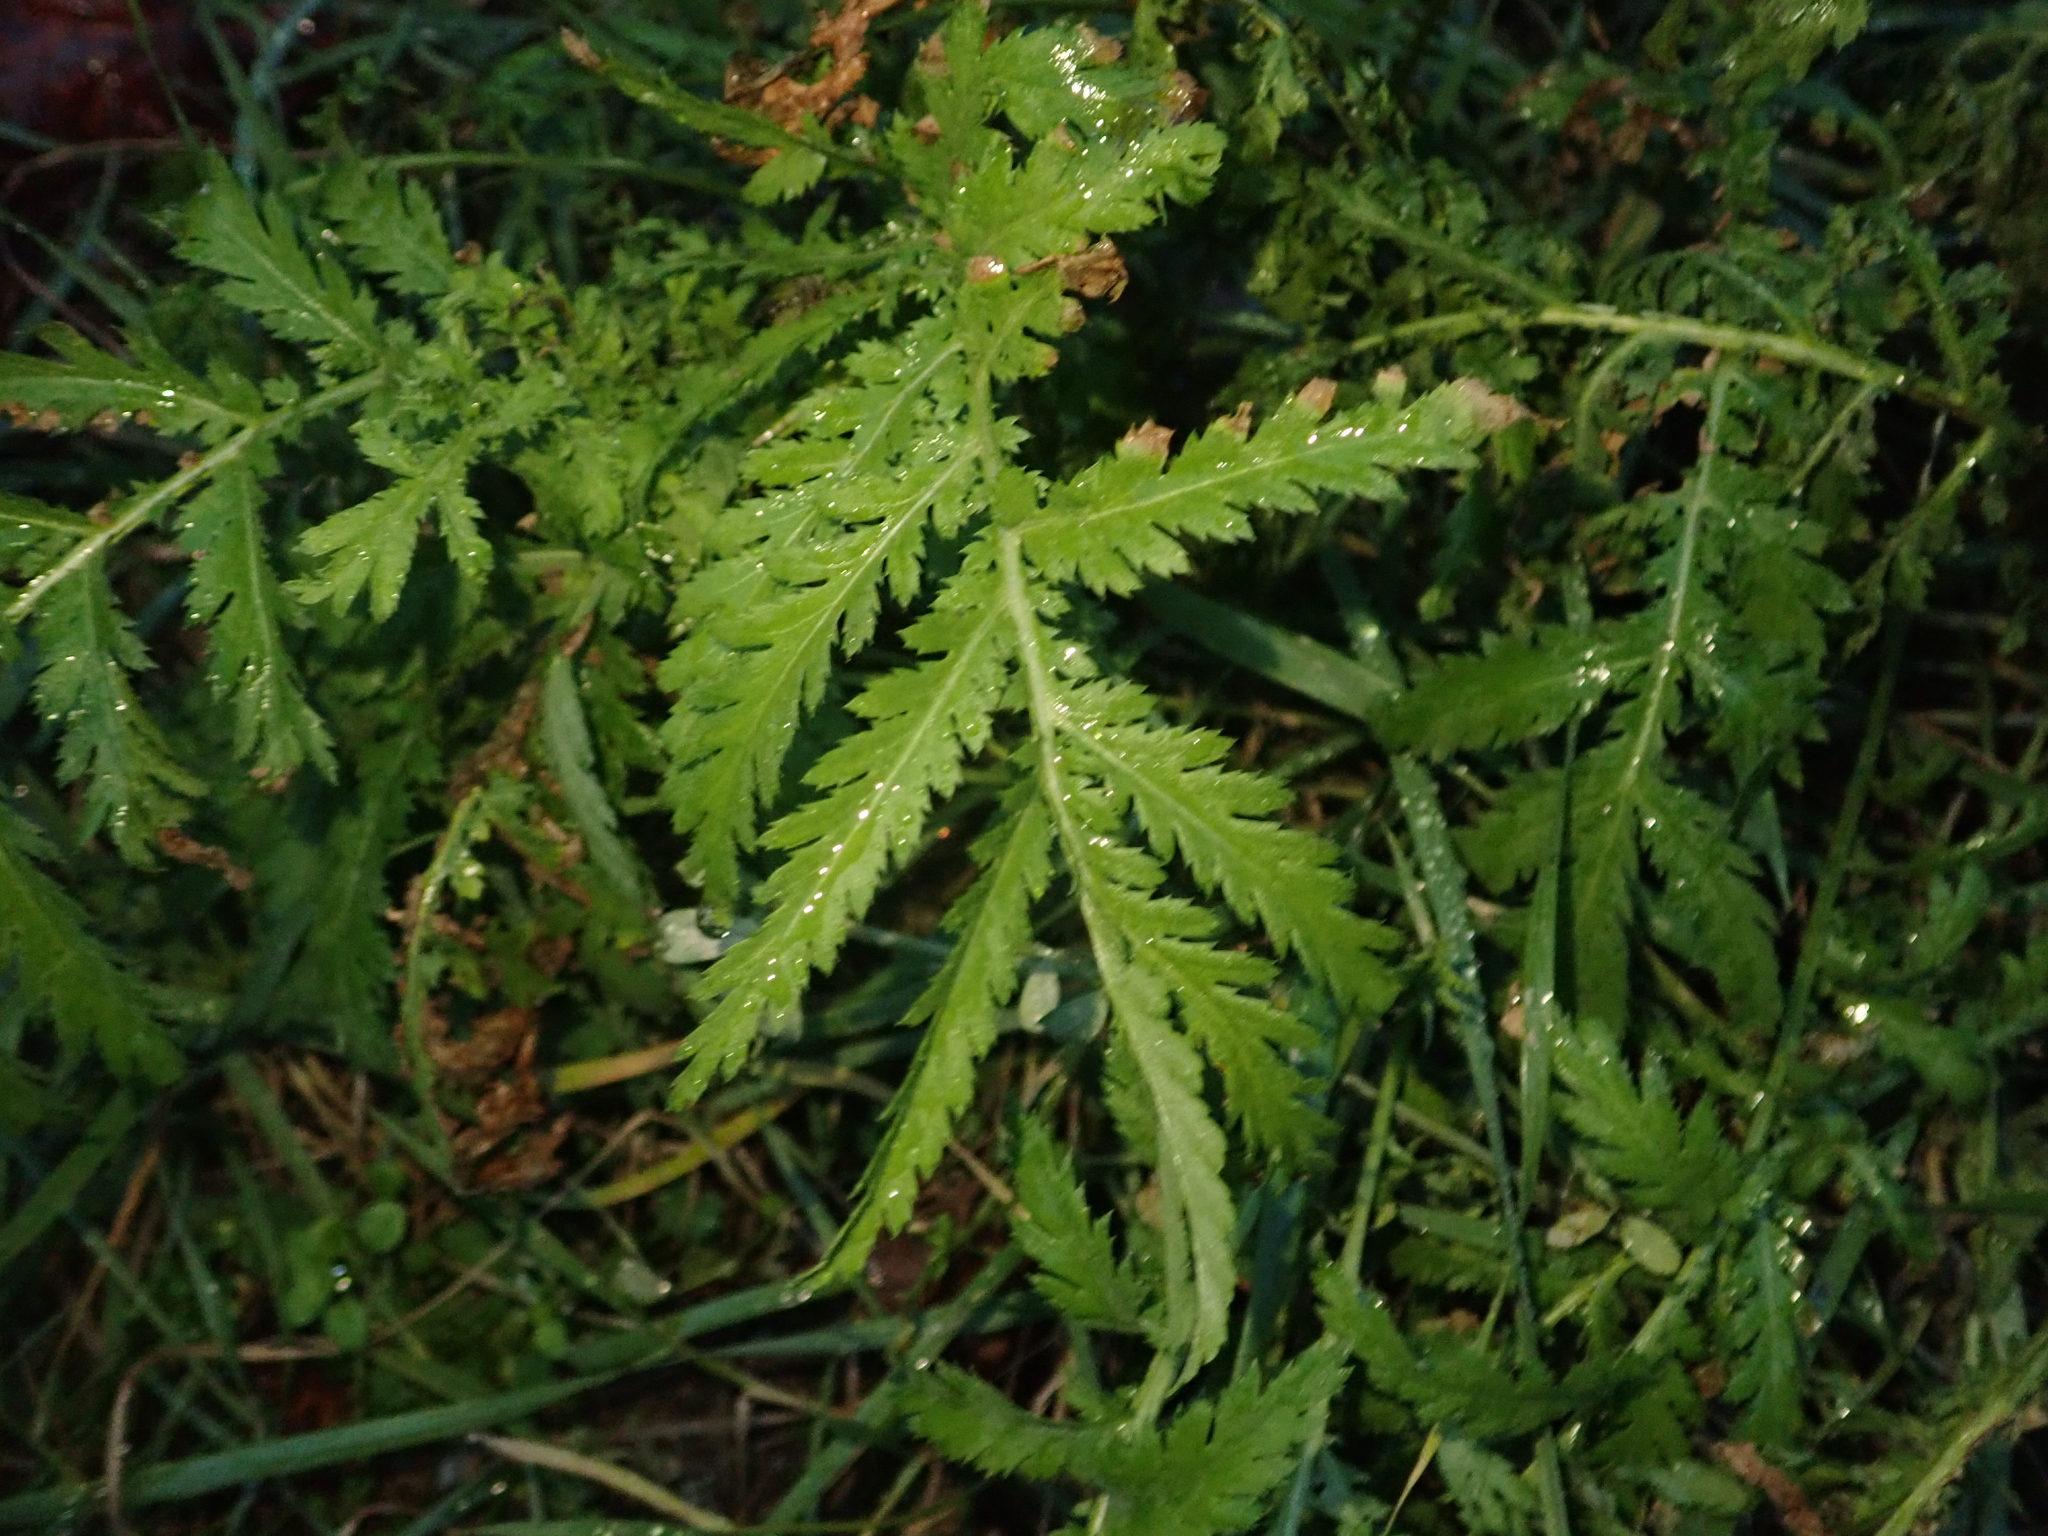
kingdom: Plantae
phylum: Tracheophyta
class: Magnoliopsida
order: Asterales
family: Asteraceae
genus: Tanacetum
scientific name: Tanacetum vulgare
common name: Common tansy
